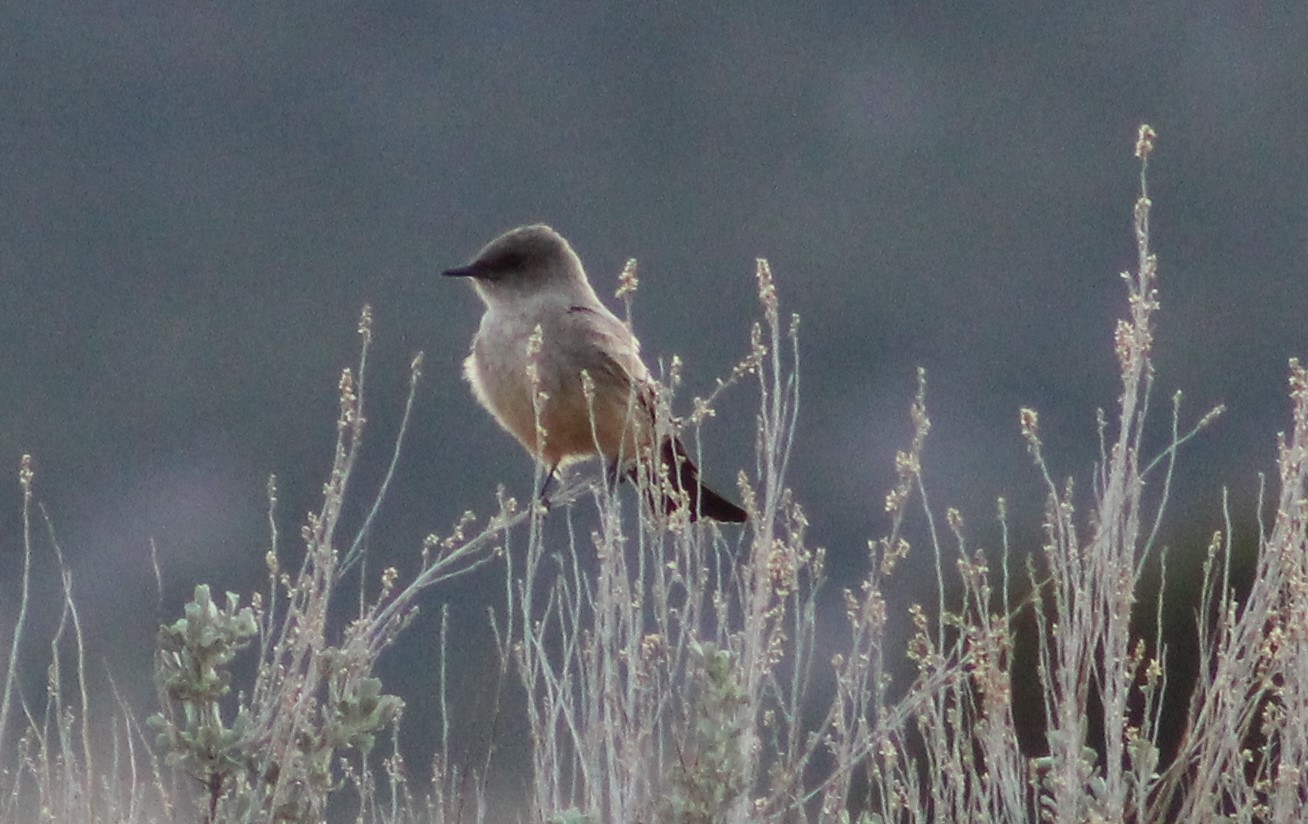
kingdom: Animalia
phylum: Chordata
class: Aves
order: Passeriformes
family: Tyrannidae
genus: Sayornis
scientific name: Sayornis saya
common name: Say's phoebe
